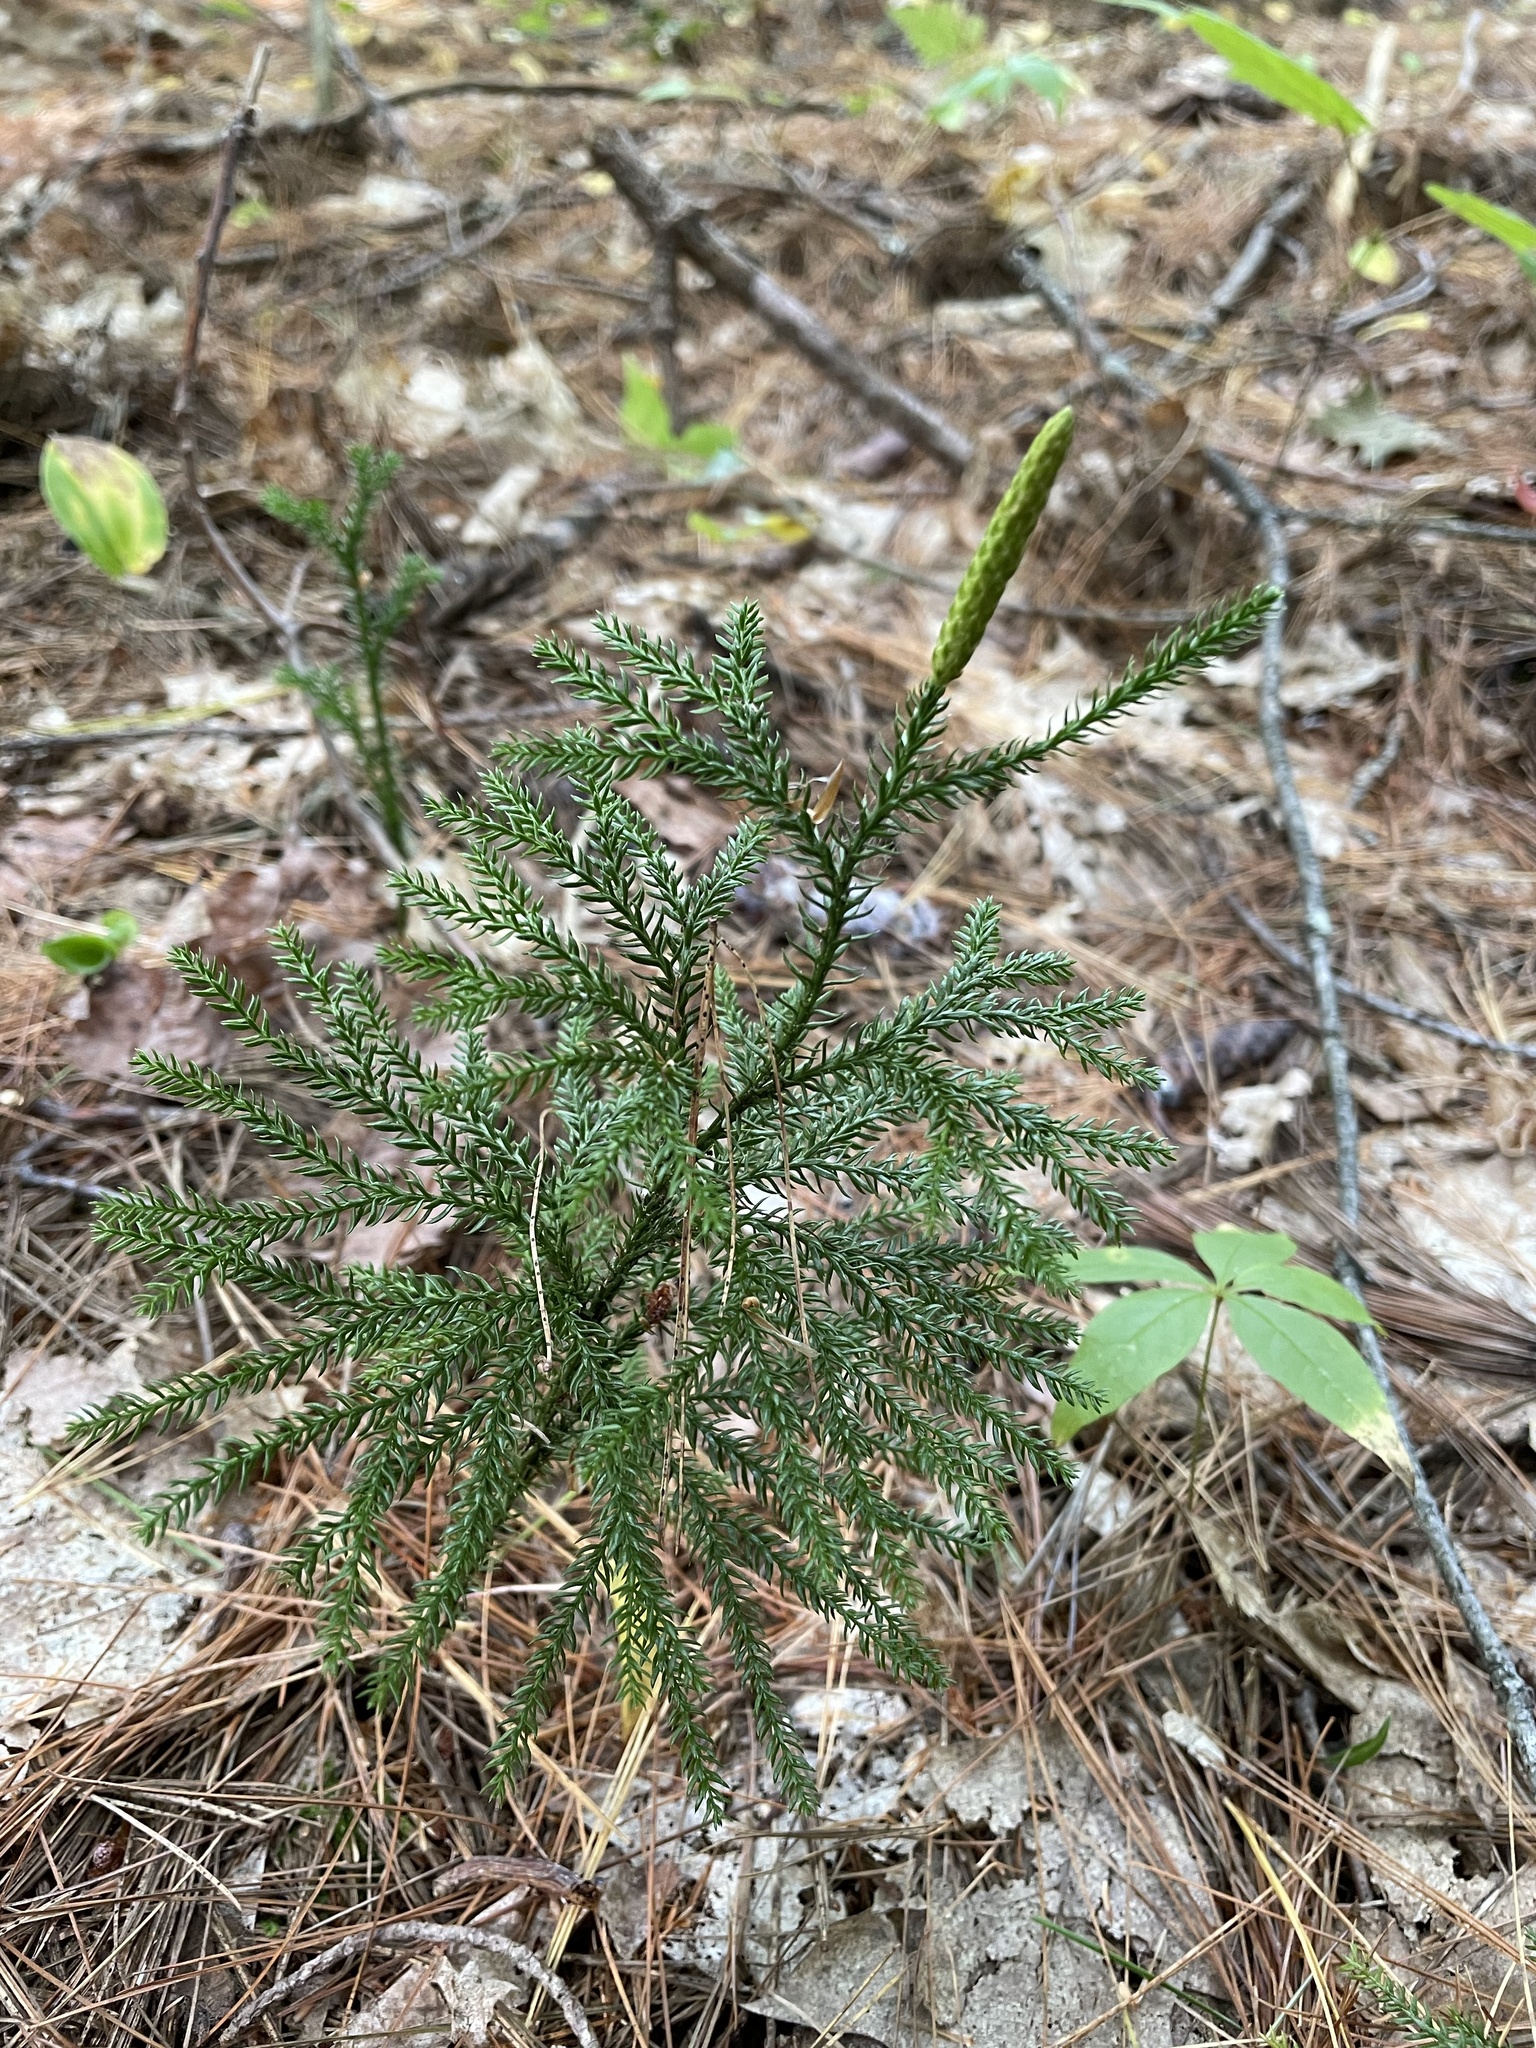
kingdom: Plantae
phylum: Tracheophyta
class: Lycopodiopsida
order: Lycopodiales
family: Lycopodiaceae
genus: Dendrolycopodium
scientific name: Dendrolycopodium dendroideum
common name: Northern tree-clubmoss
